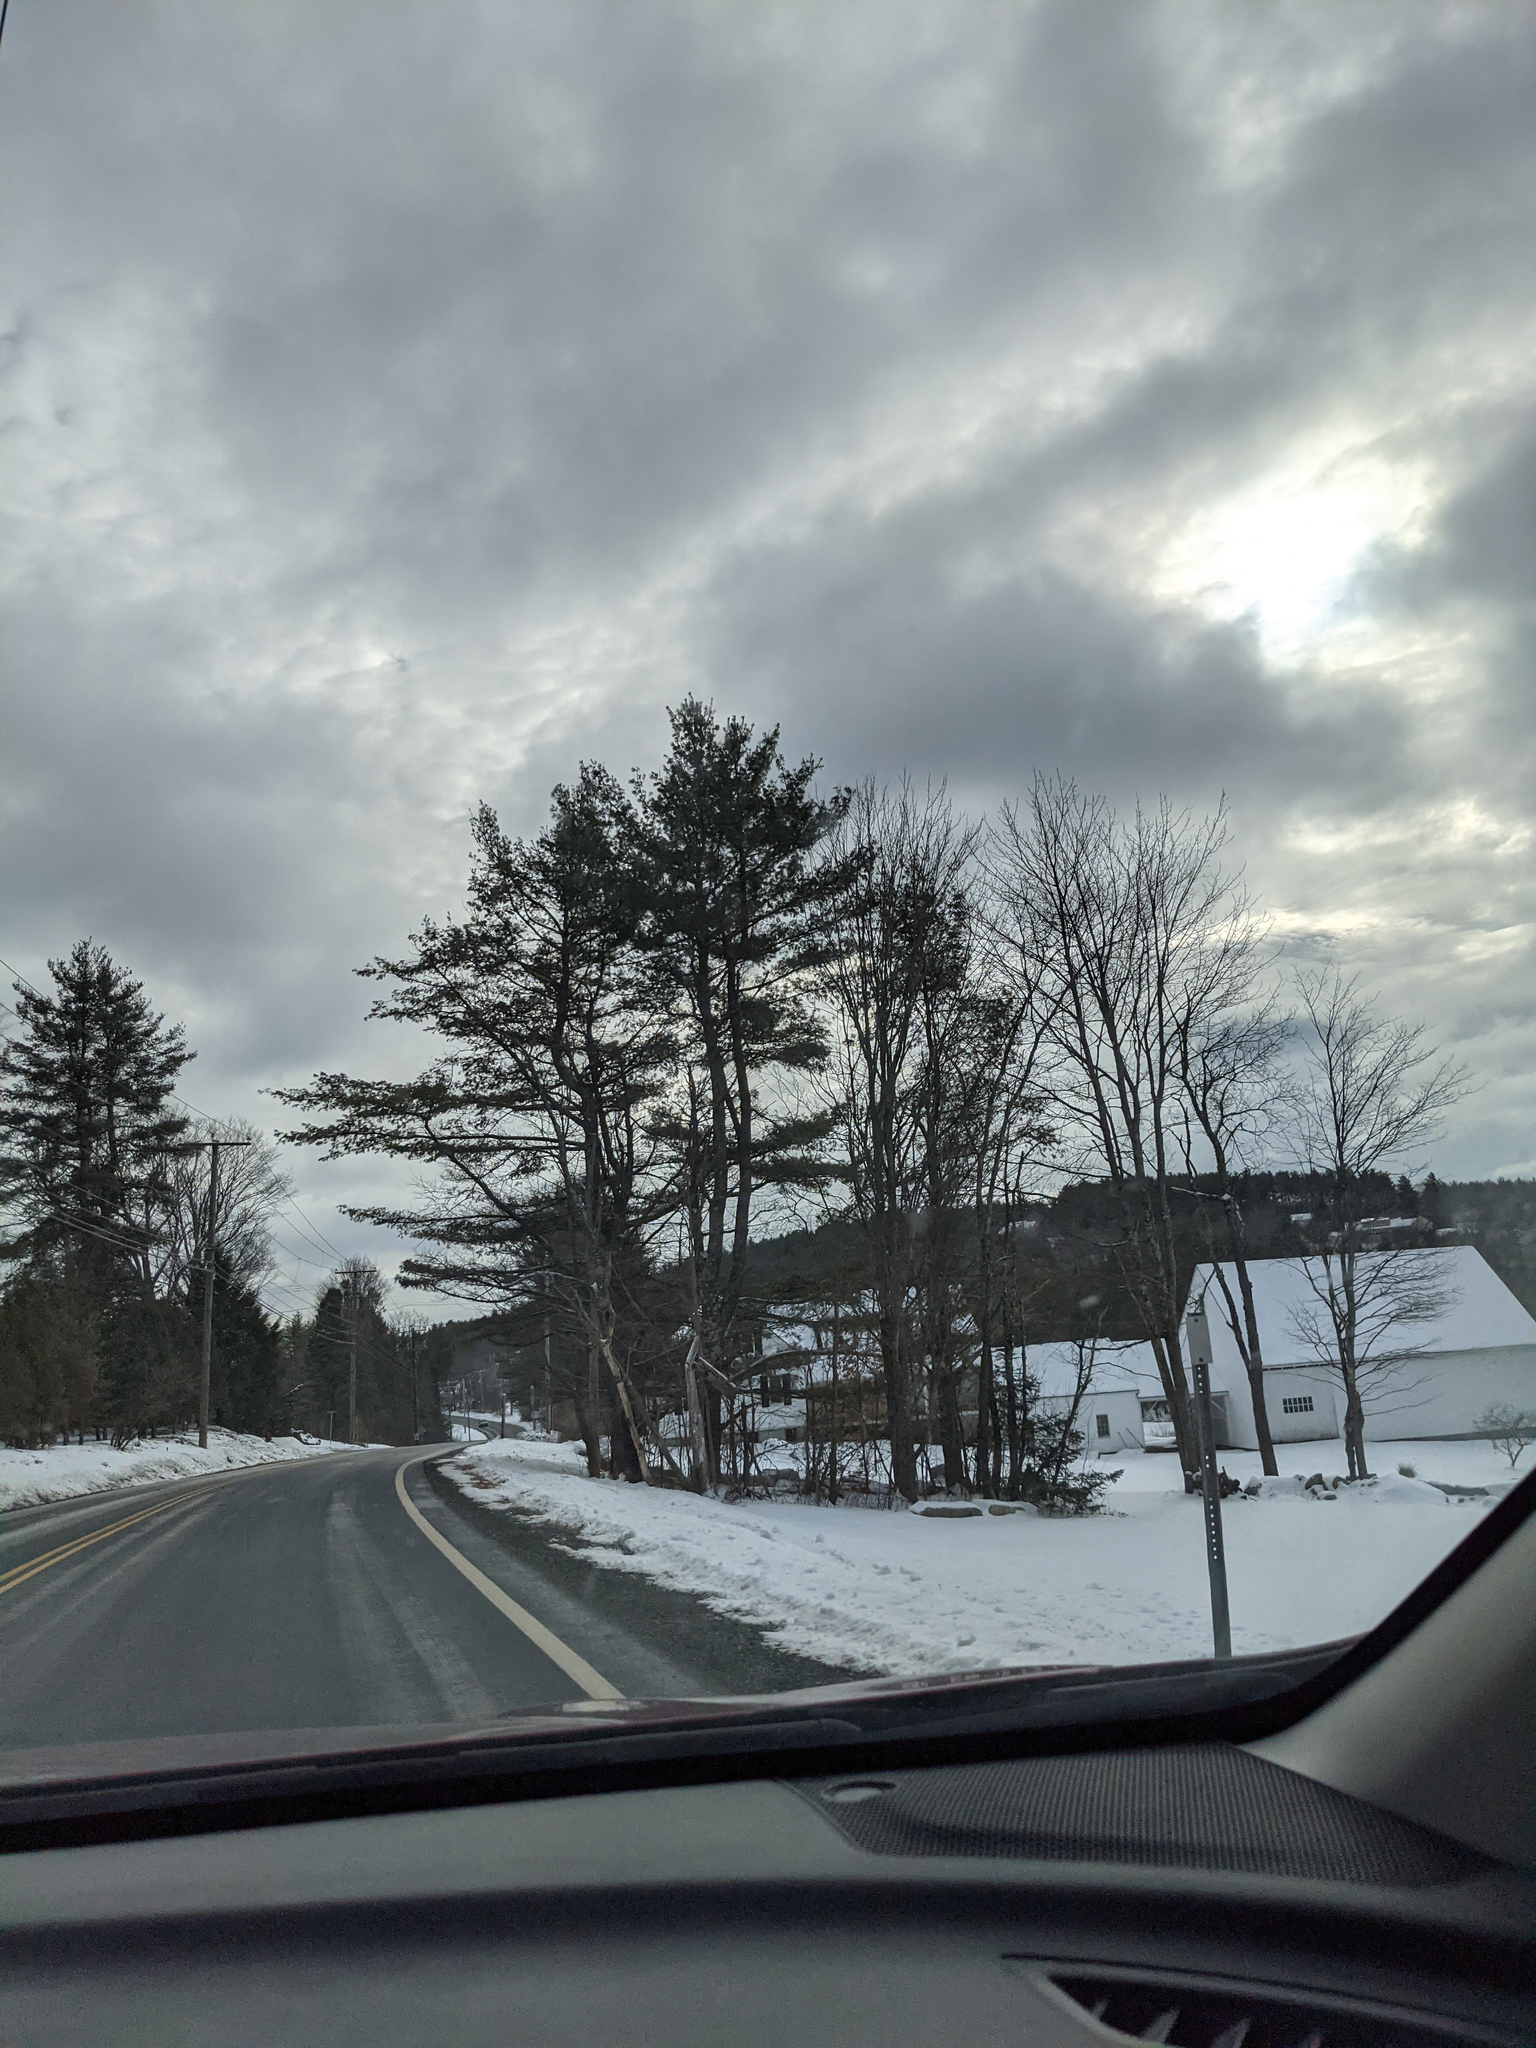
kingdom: Plantae
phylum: Tracheophyta
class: Pinopsida
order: Pinales
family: Pinaceae
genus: Pinus
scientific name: Pinus strobus
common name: Weymouth pine
